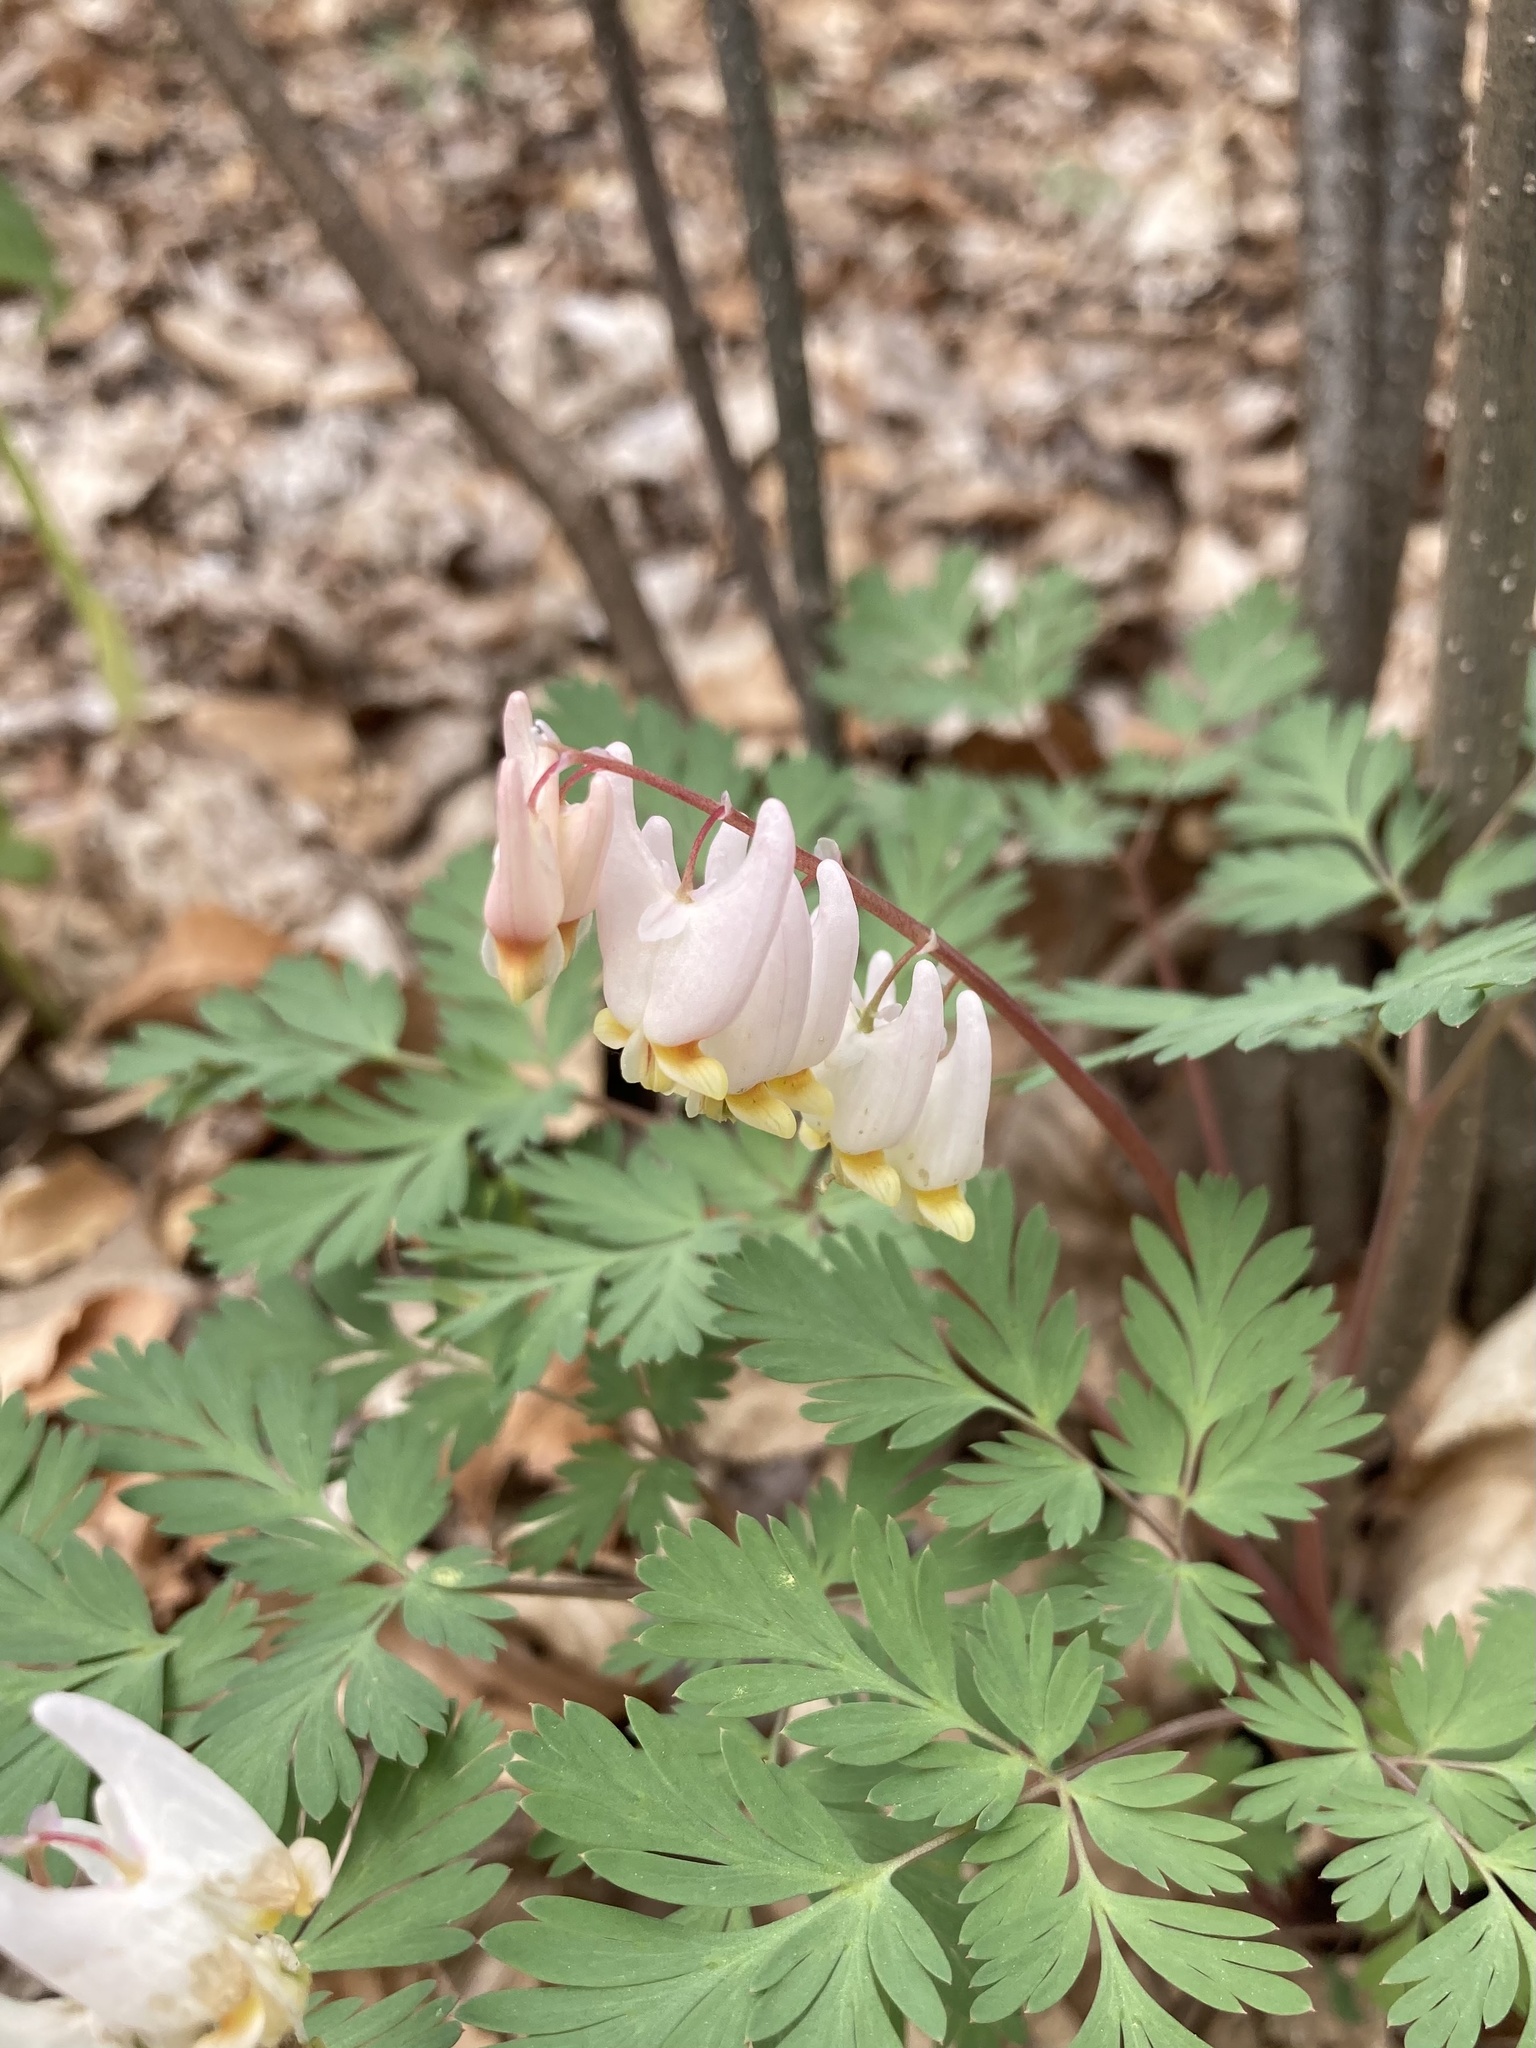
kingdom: Plantae
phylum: Tracheophyta
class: Magnoliopsida
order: Ranunculales
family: Papaveraceae
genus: Dicentra
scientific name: Dicentra cucullaria
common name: Dutchman's breeches
